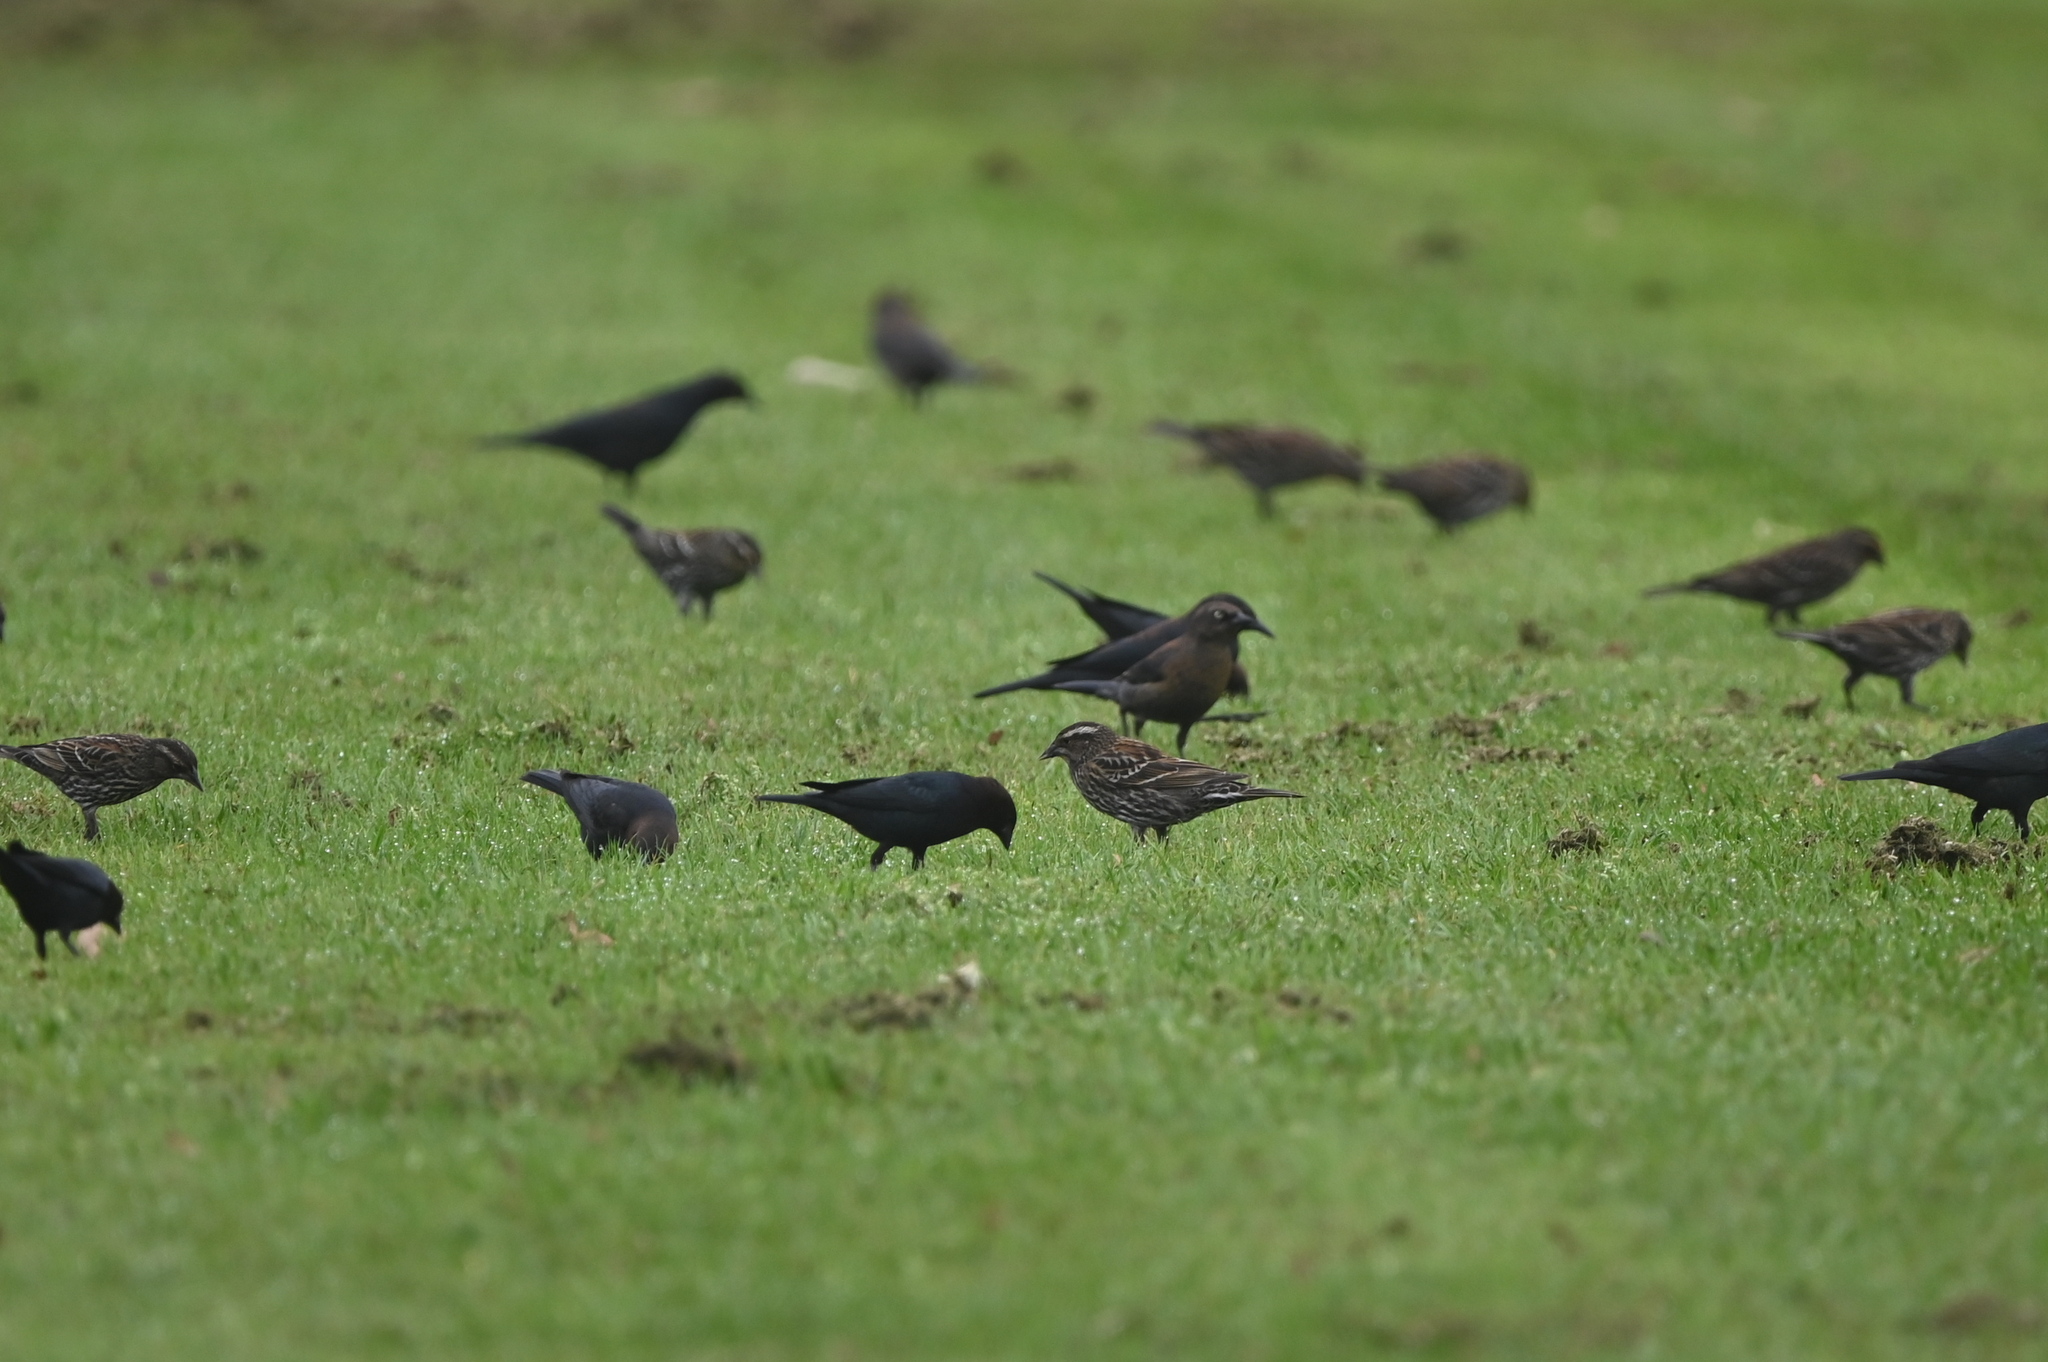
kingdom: Animalia
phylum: Chordata
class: Aves
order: Passeriformes
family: Icteridae
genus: Euphagus
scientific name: Euphagus carolinus
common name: Rusty blackbird
